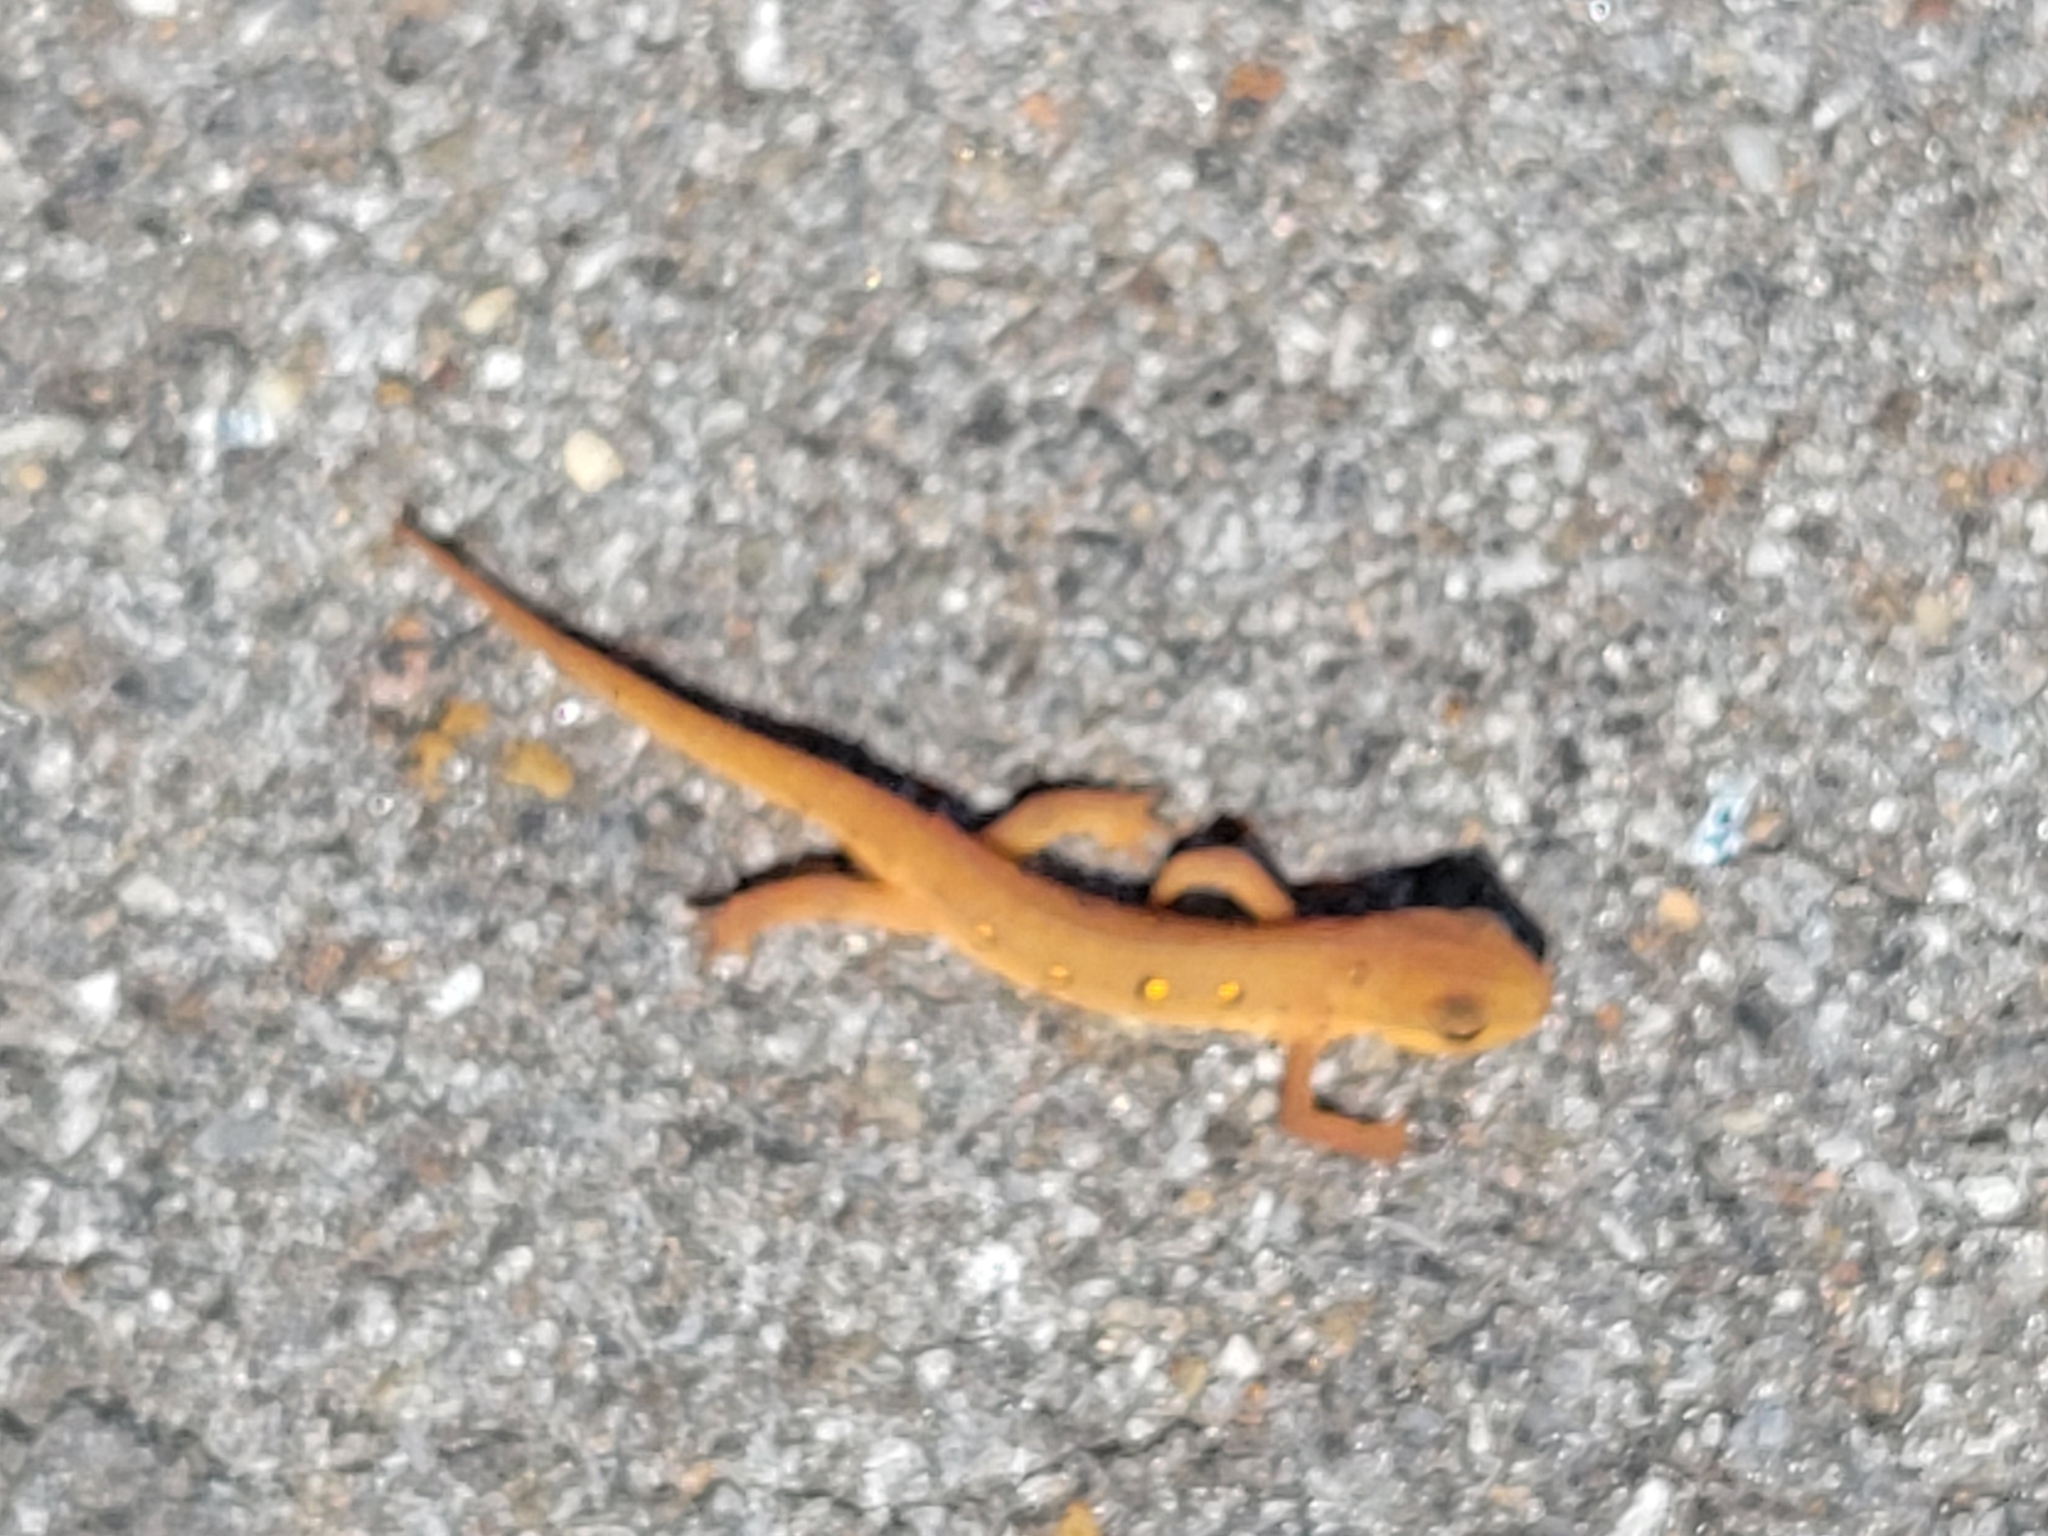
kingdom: Animalia
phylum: Chordata
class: Amphibia
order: Caudata
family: Salamandridae
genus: Notophthalmus
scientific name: Notophthalmus viridescens
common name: Eastern newt
